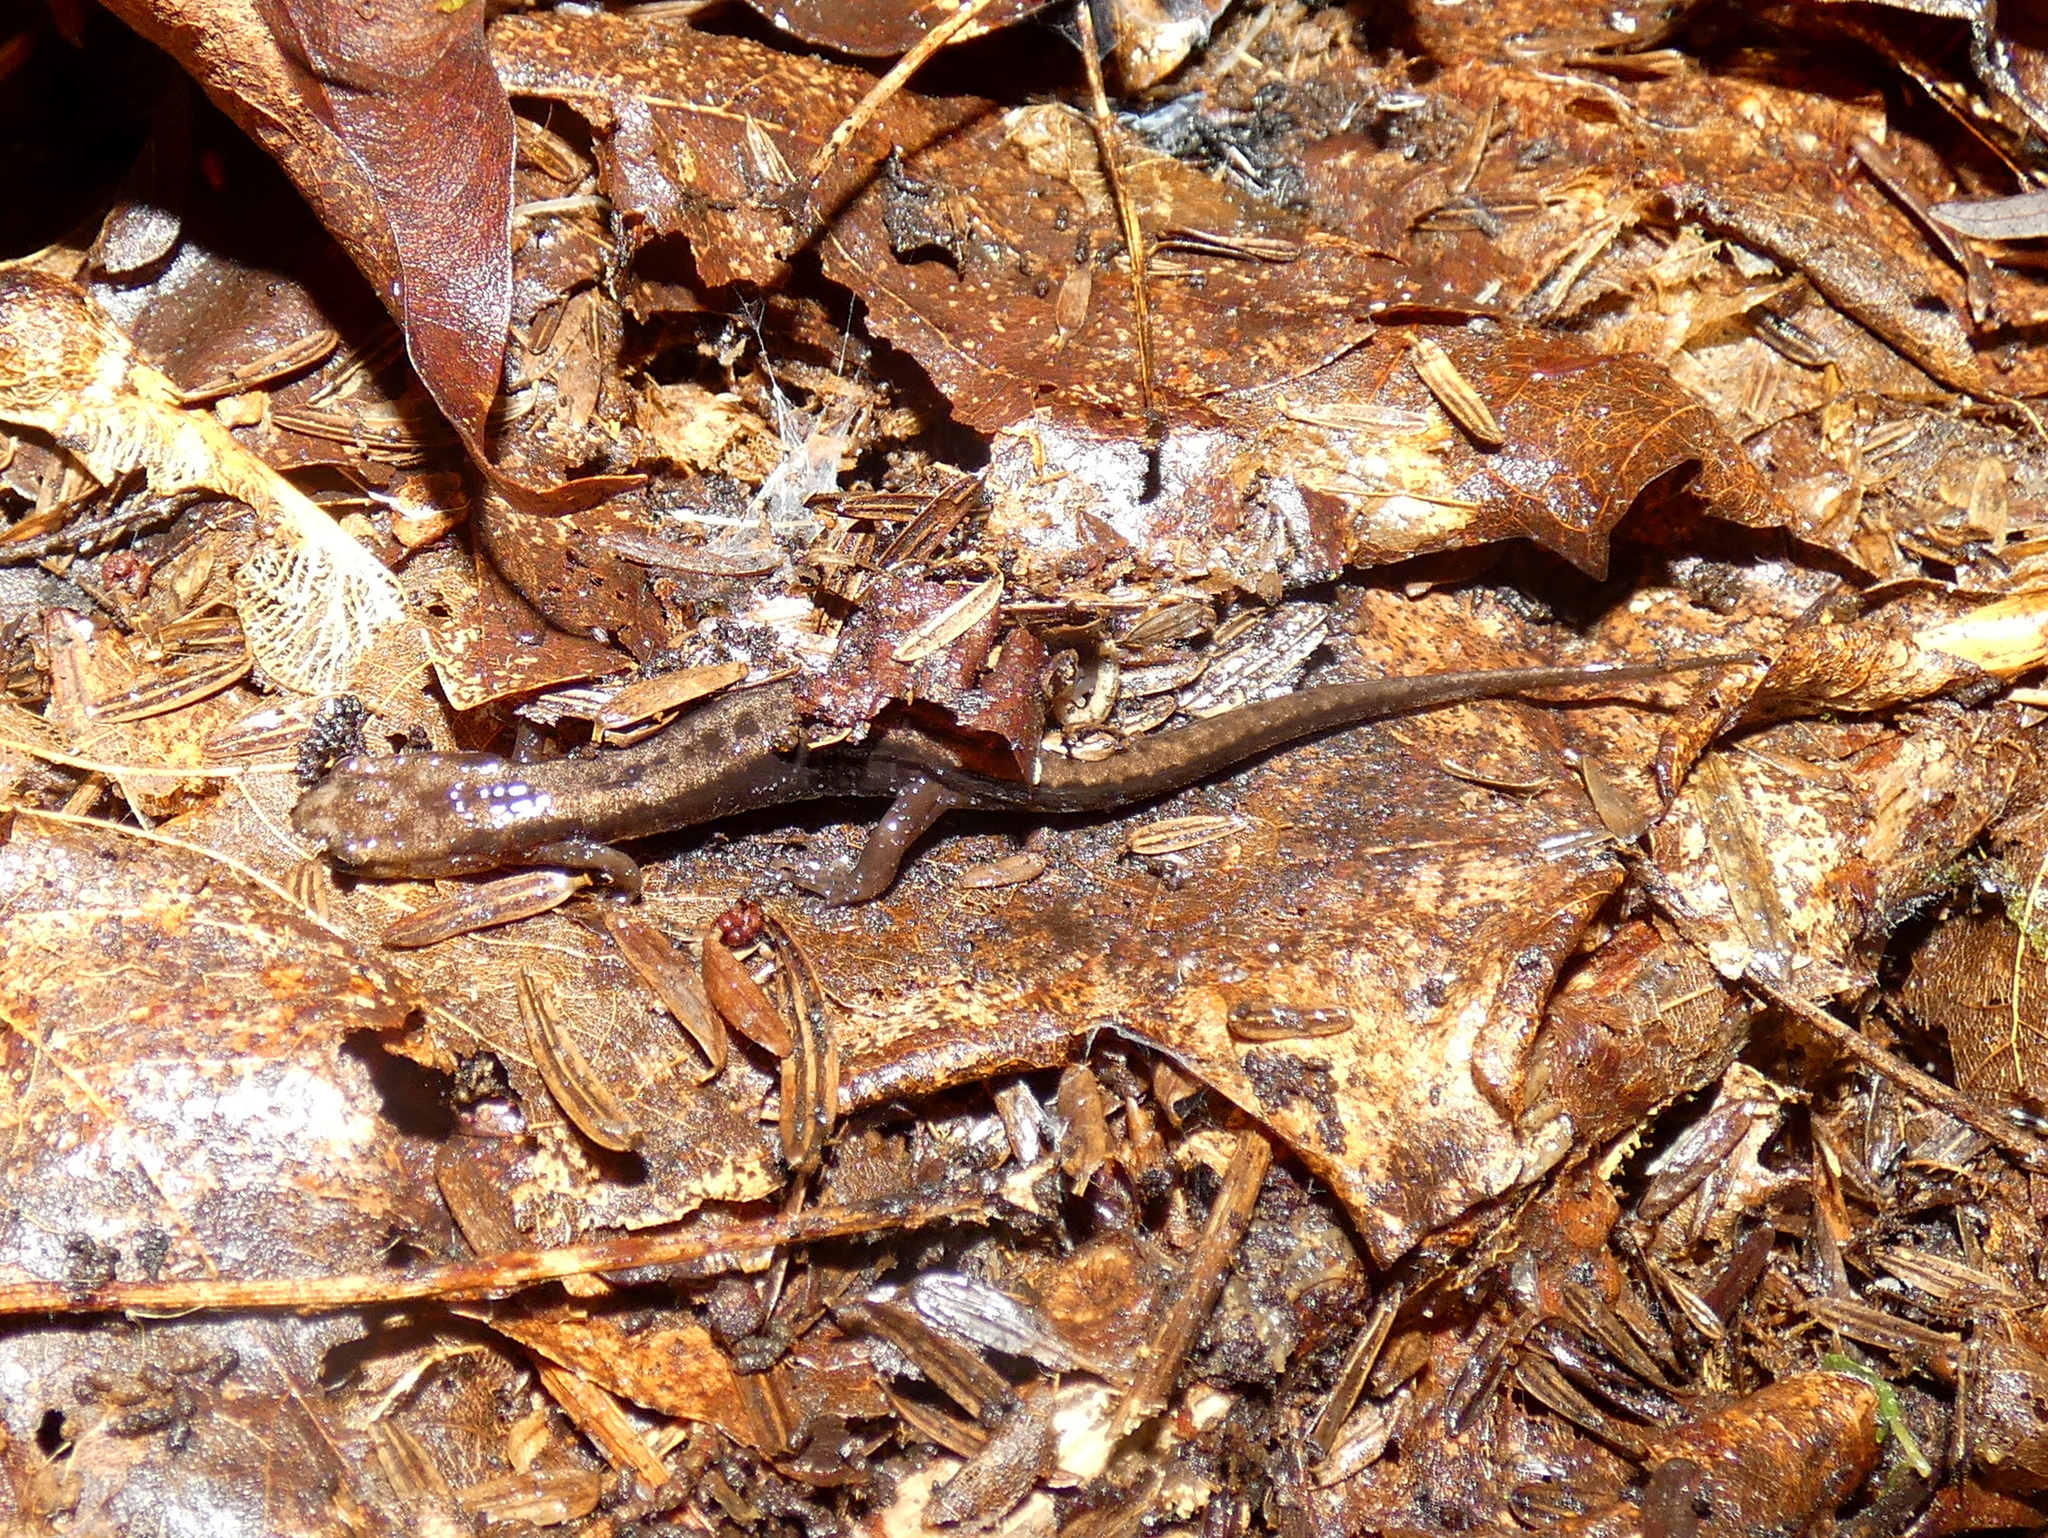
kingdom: Animalia
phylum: Chordata
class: Amphibia
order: Caudata
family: Plethodontidae
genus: Desmognathus
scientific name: Desmognathus ochrophaeus
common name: Allegheny mountain dusky salamander
